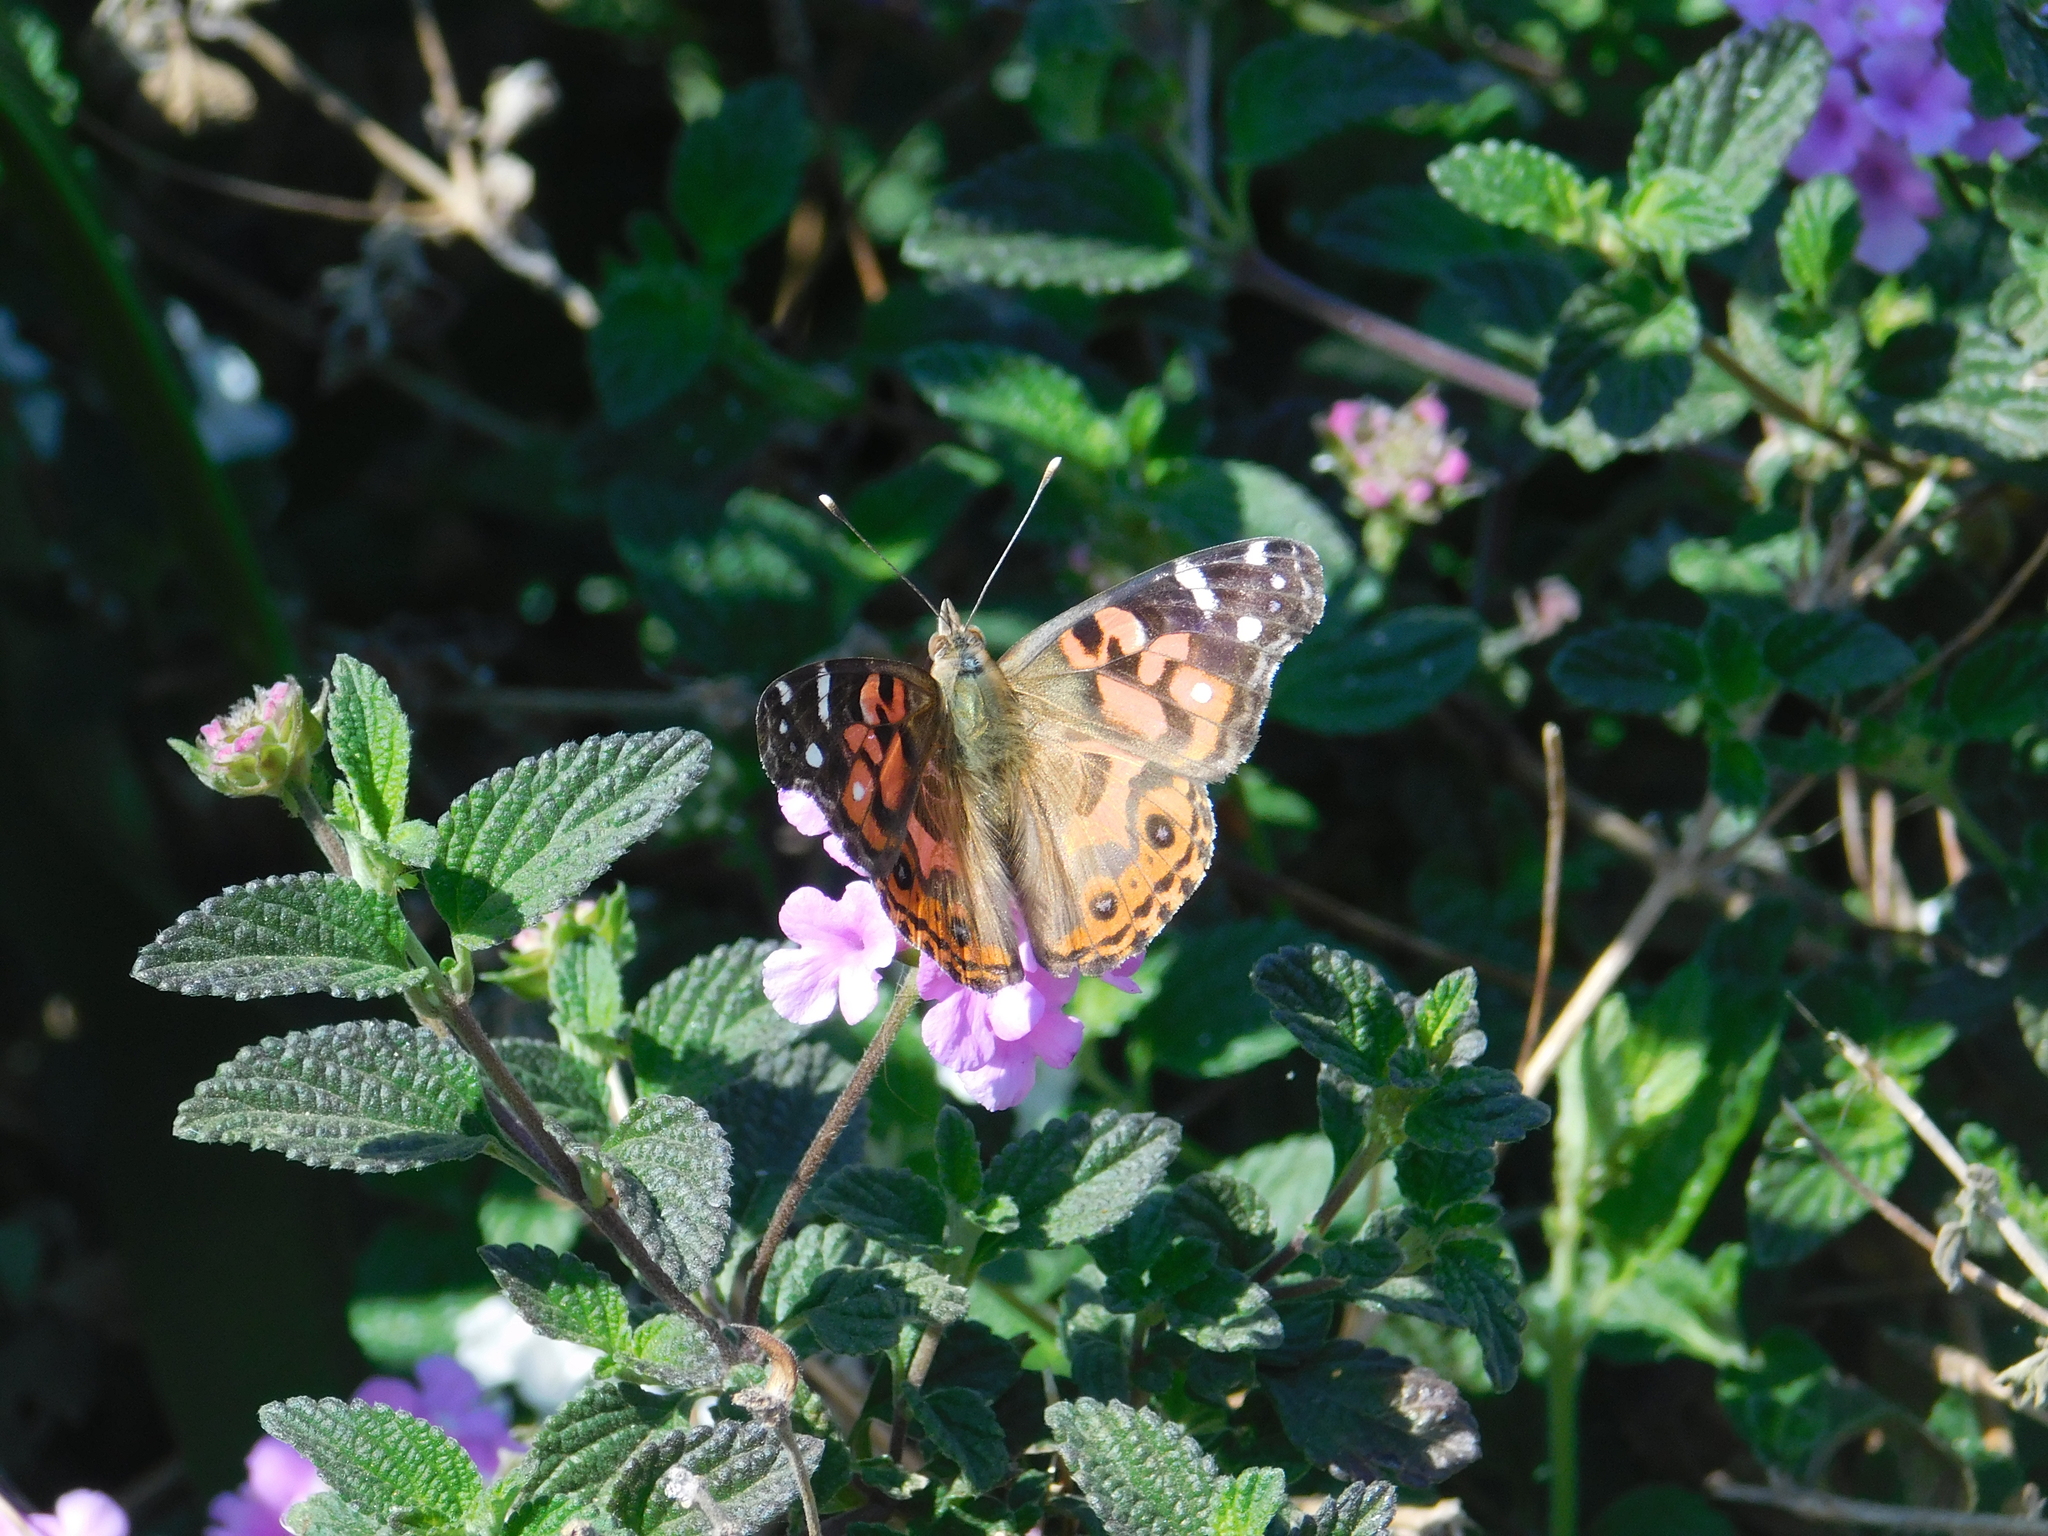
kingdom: Animalia
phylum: Arthropoda
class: Insecta
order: Lepidoptera
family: Nymphalidae
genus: Vanessa
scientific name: Vanessa braziliensis
